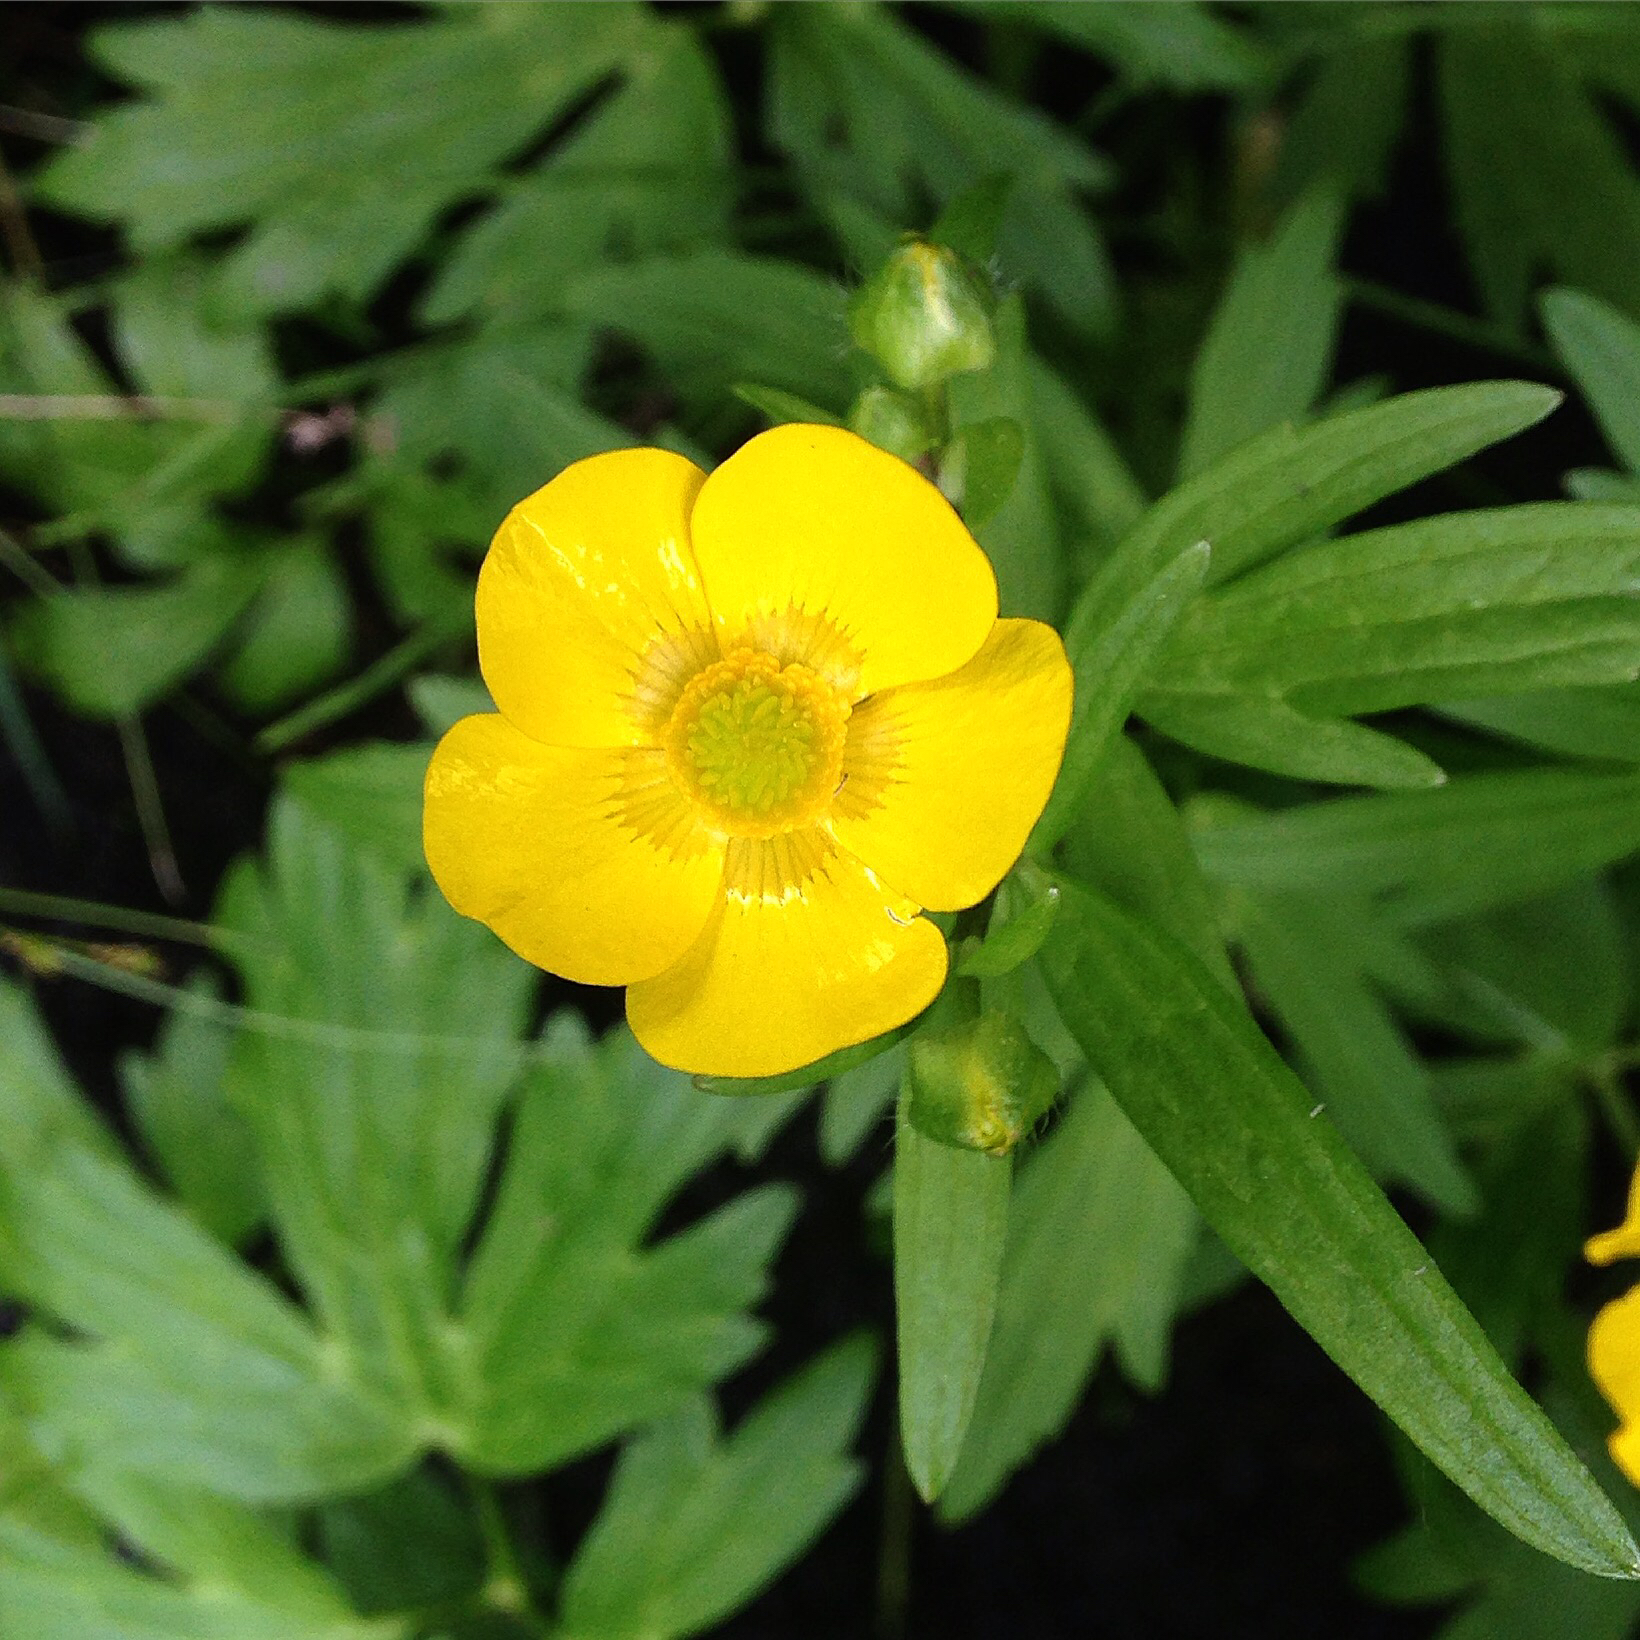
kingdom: Plantae
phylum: Tracheophyta
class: Magnoliopsida
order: Ranunculales
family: Ranunculaceae
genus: Ranunculus
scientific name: Ranunculus hispidus
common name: Bristly buttercup
